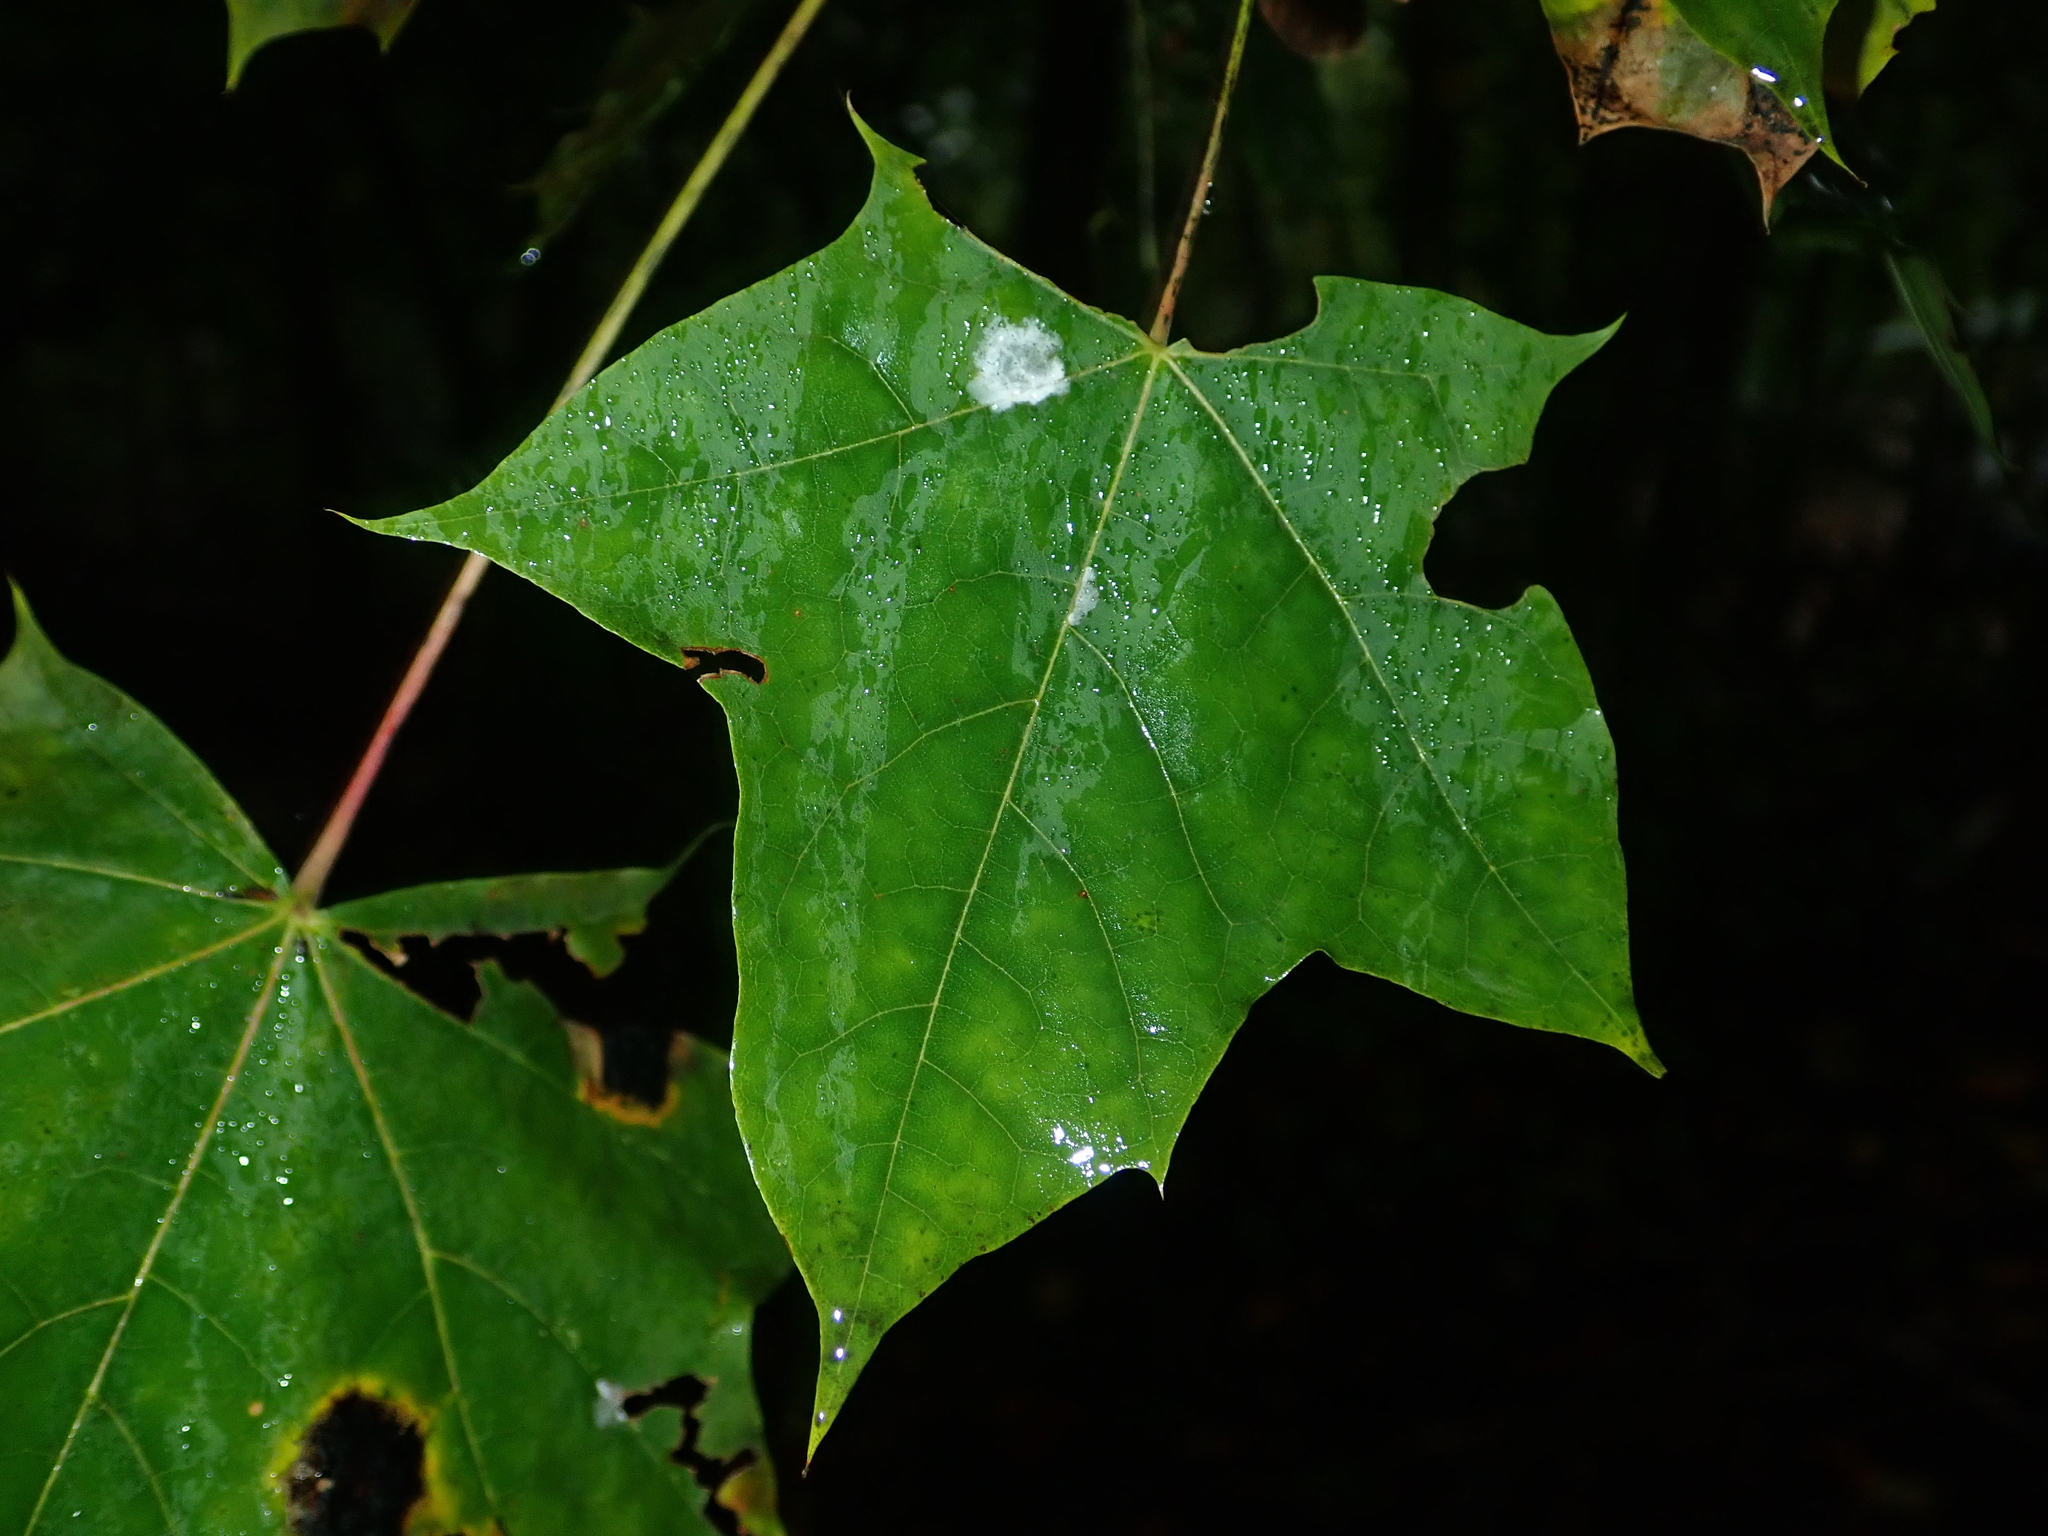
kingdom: Plantae
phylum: Tracheophyta
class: Magnoliopsida
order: Sapindales
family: Sapindaceae
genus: Acer
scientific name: Acer platanoides
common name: Norway maple
